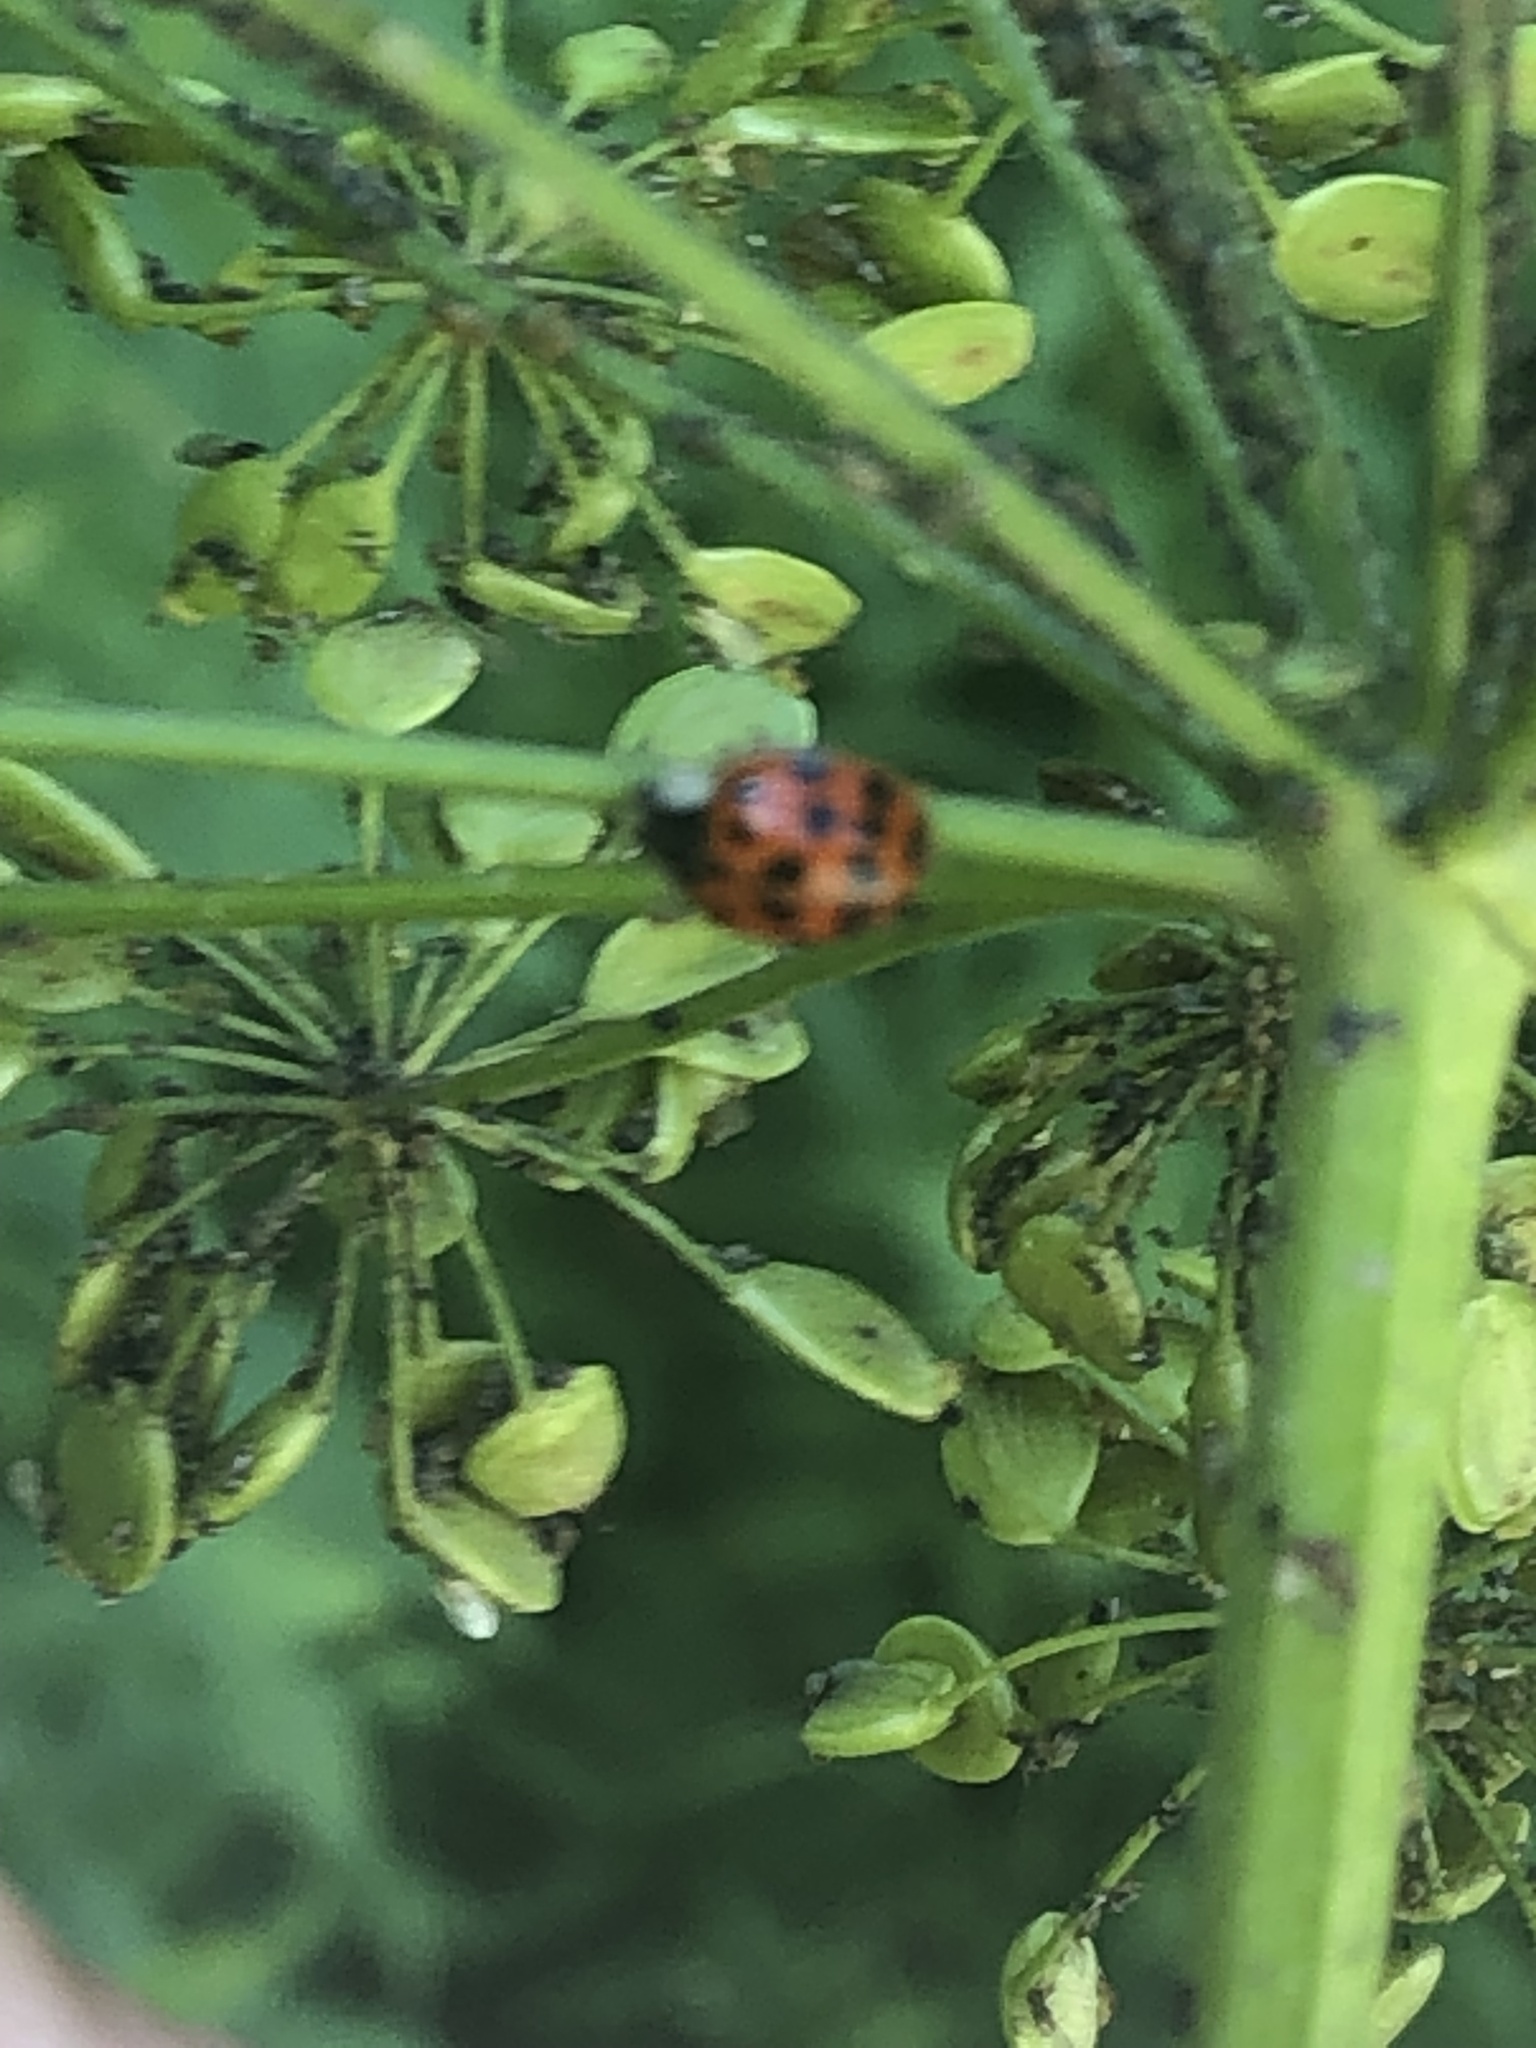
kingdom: Animalia
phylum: Arthropoda
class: Insecta
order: Coleoptera
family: Coccinellidae
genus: Harmonia
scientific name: Harmonia axyridis
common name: Harlequin ladybird
